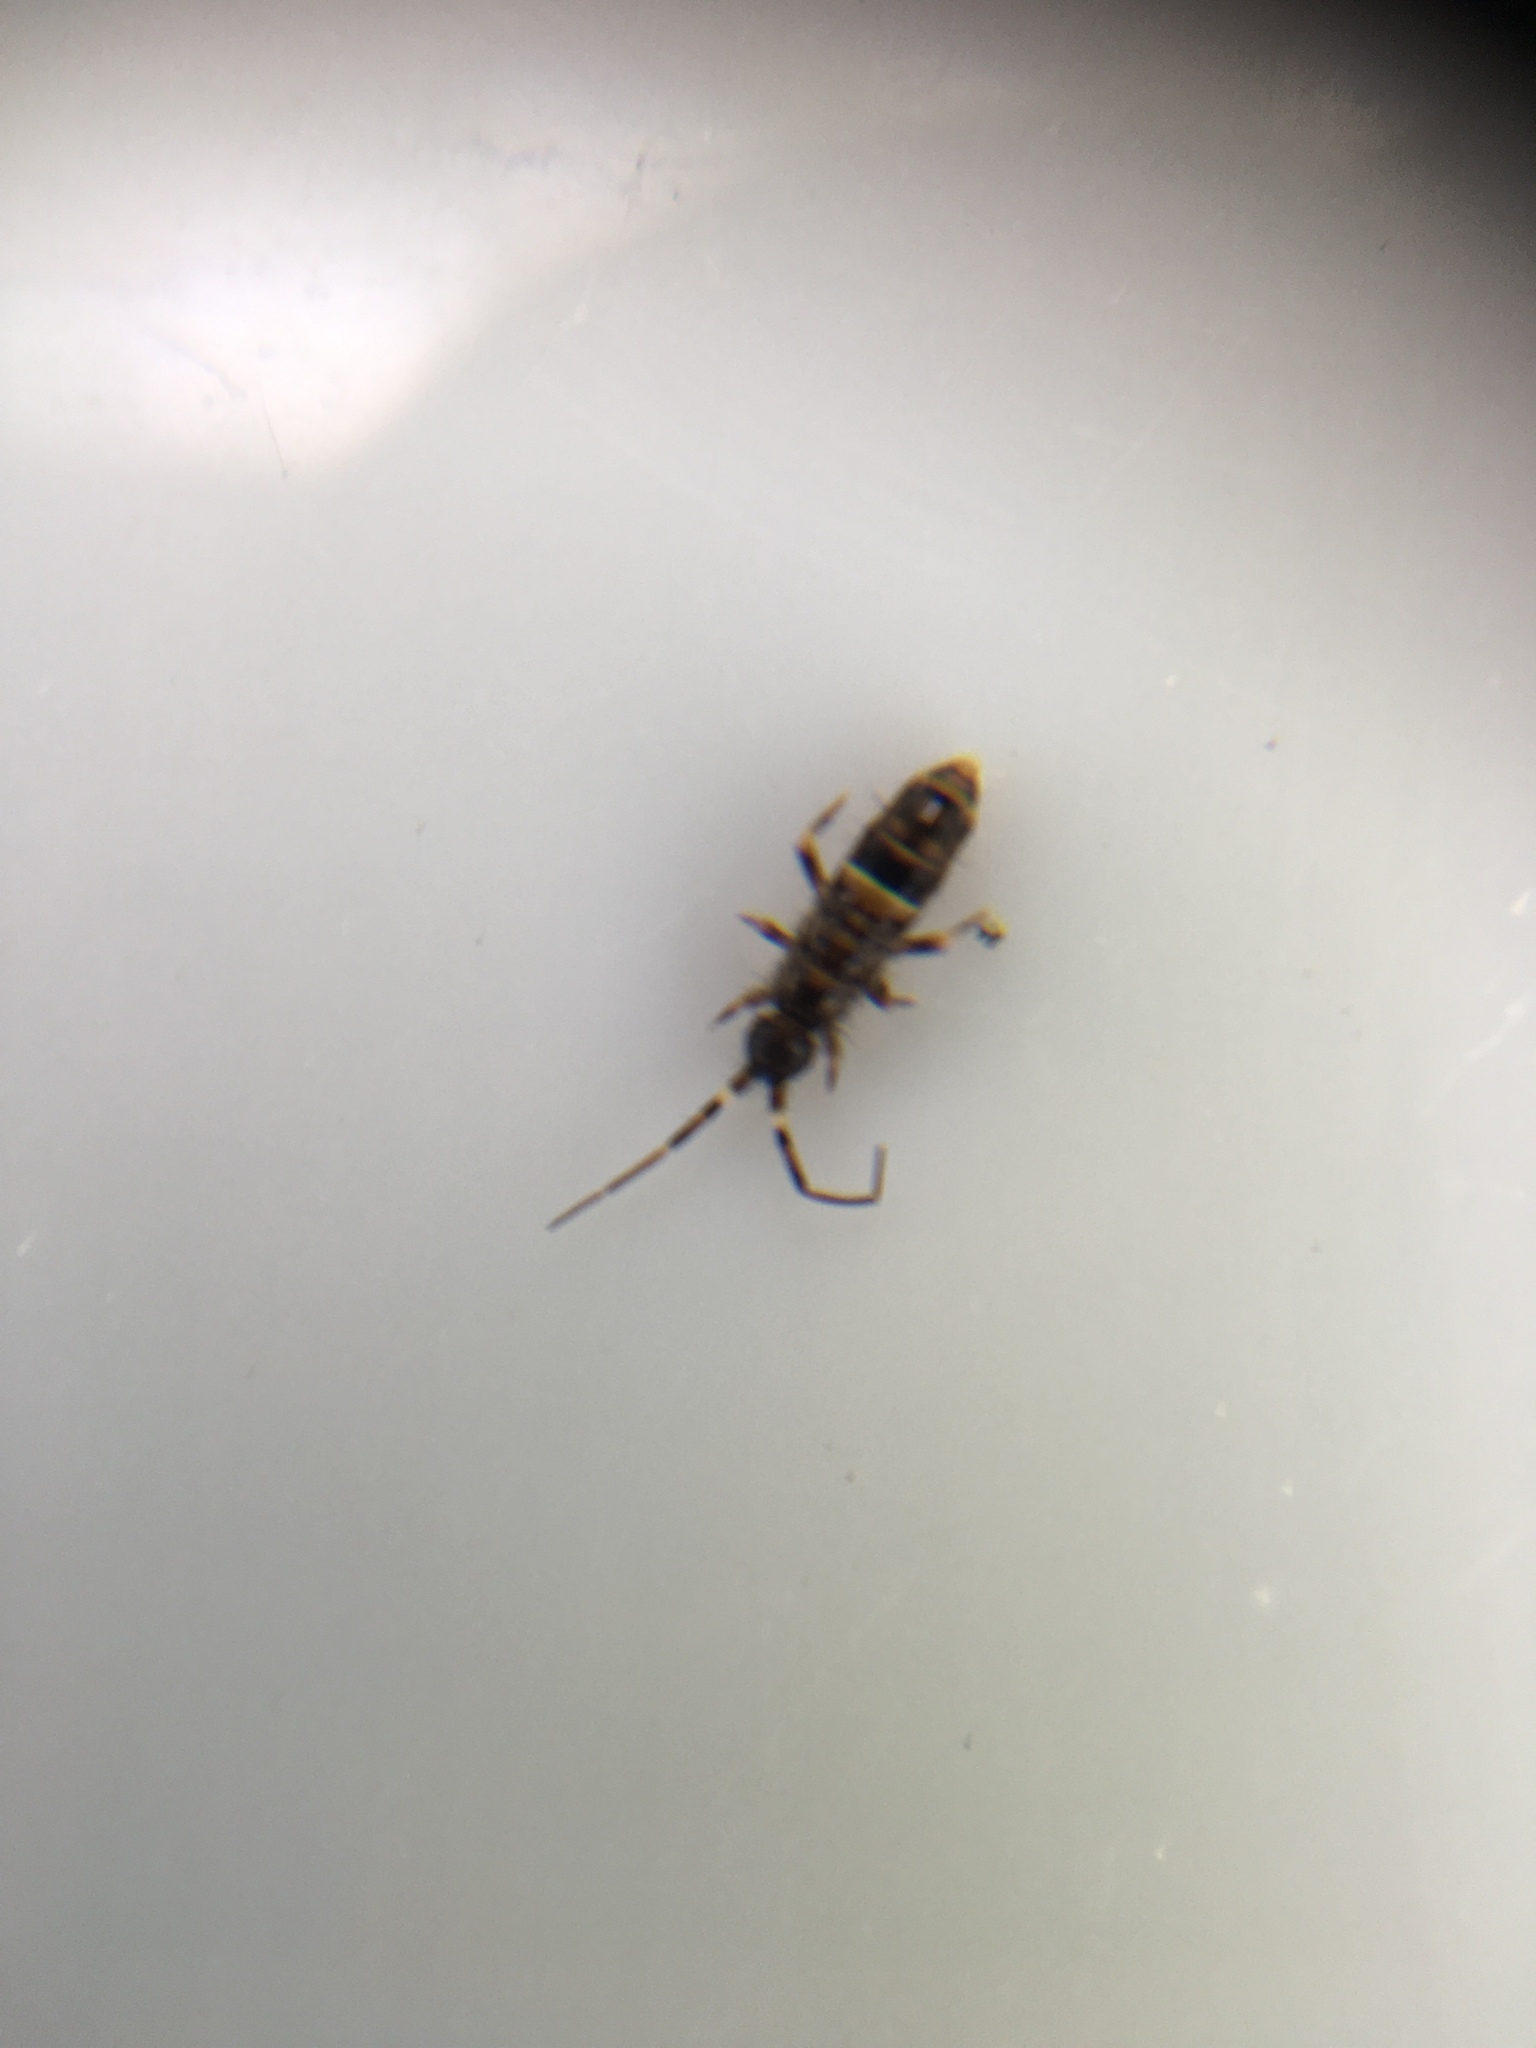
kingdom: Animalia
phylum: Arthropoda
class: Collembola
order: Entomobryomorpha
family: Orchesellidae
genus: Orchesella
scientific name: Orchesella cincta
